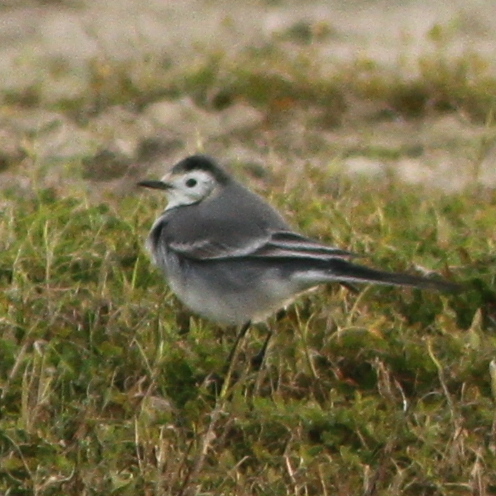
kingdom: Animalia
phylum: Chordata
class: Aves
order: Passeriformes
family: Motacillidae
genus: Motacilla
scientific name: Motacilla alba
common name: White wagtail
